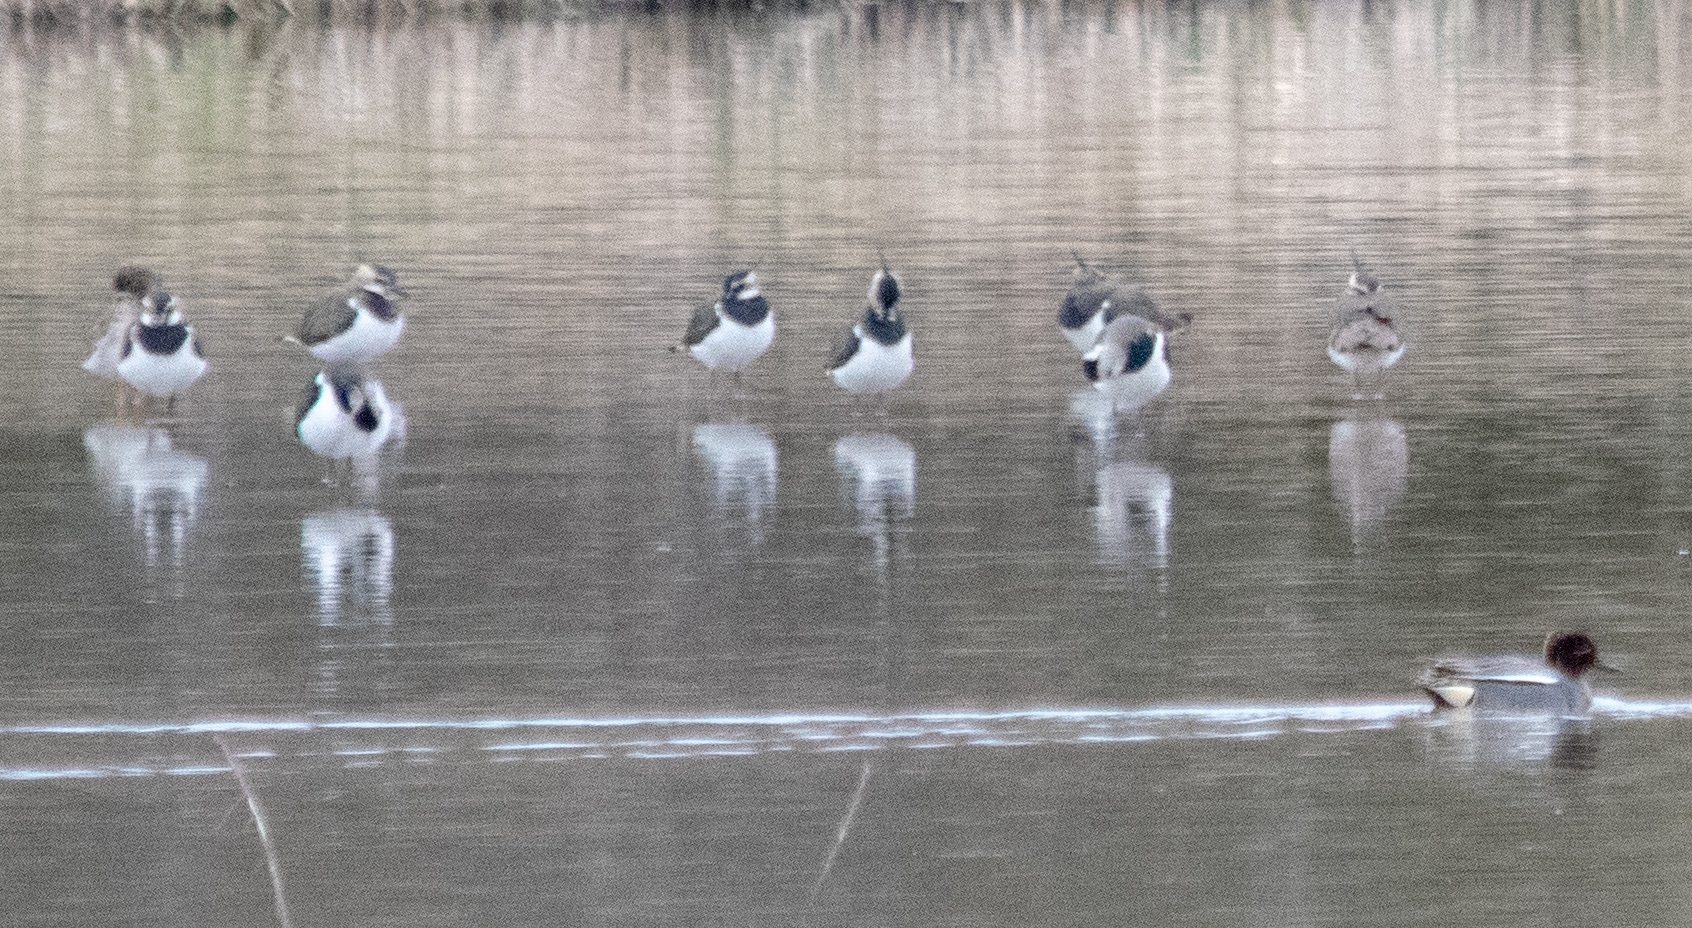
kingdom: Animalia
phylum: Chordata
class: Aves
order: Anseriformes
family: Anatidae
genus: Anas
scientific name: Anas crecca
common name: Eurasian teal
